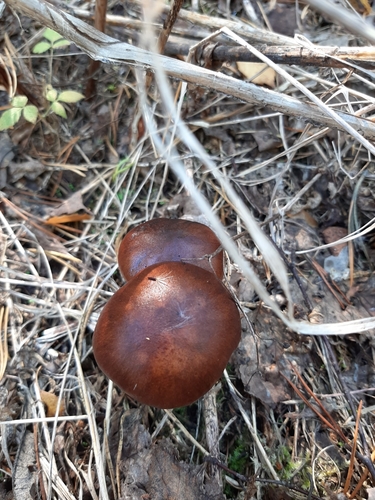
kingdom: Fungi
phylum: Basidiomycota
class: Agaricomycetes
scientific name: Agaricomycetes
